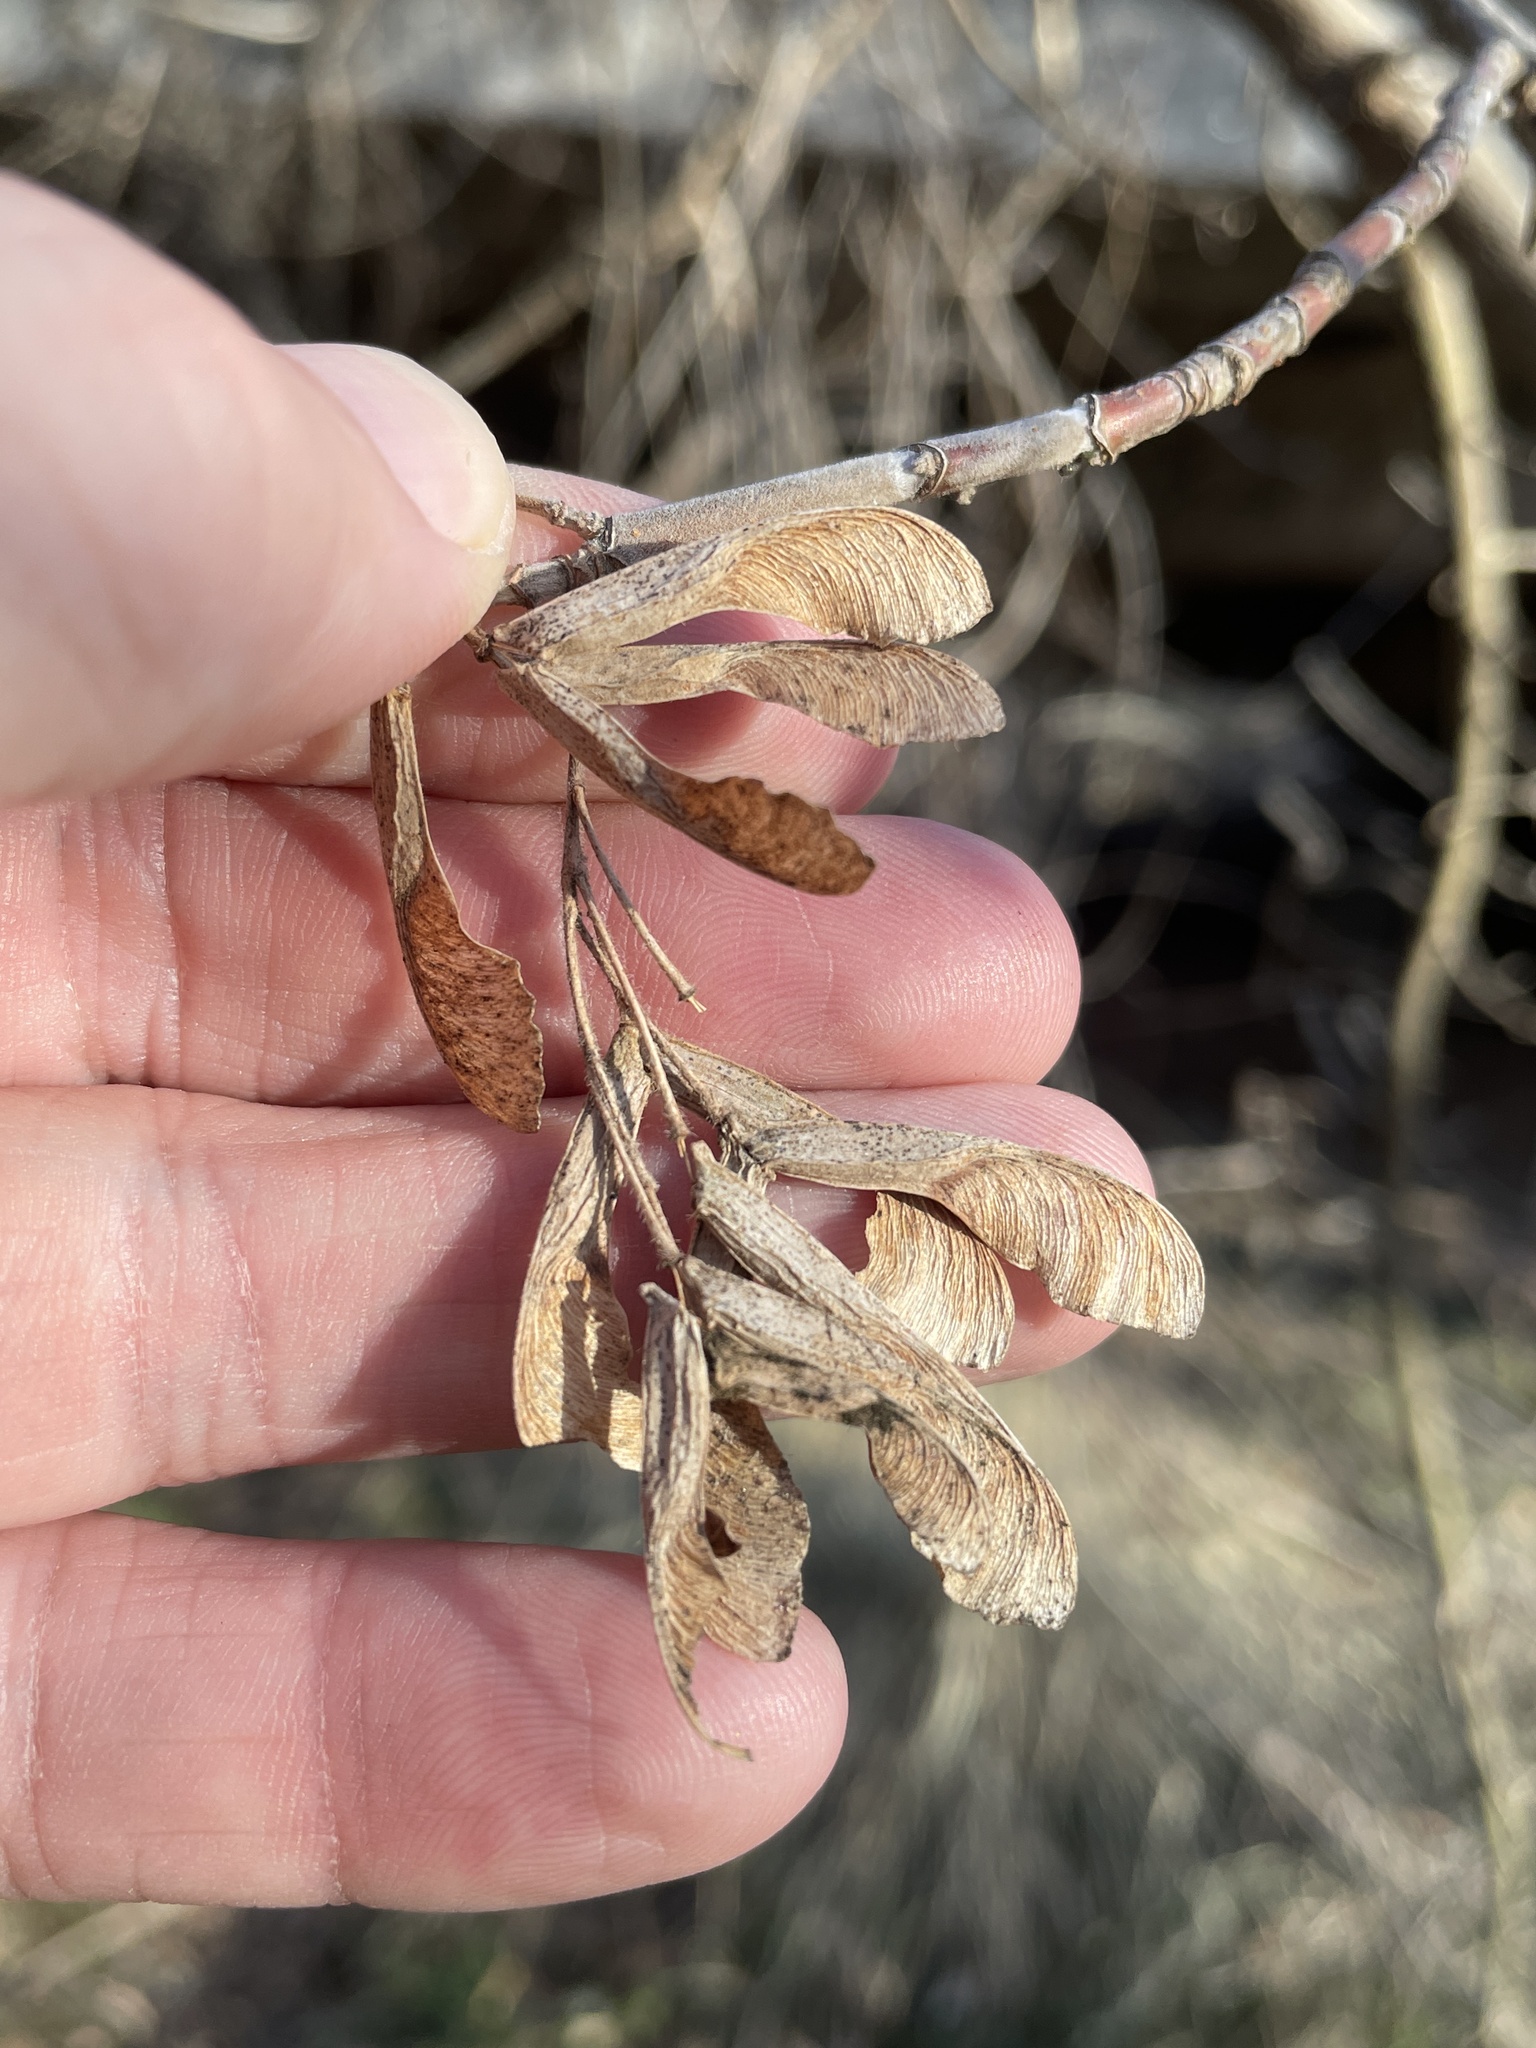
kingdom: Plantae
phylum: Tracheophyta
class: Magnoliopsida
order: Sapindales
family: Sapindaceae
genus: Acer
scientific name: Acer negundo
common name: Ashleaf maple
